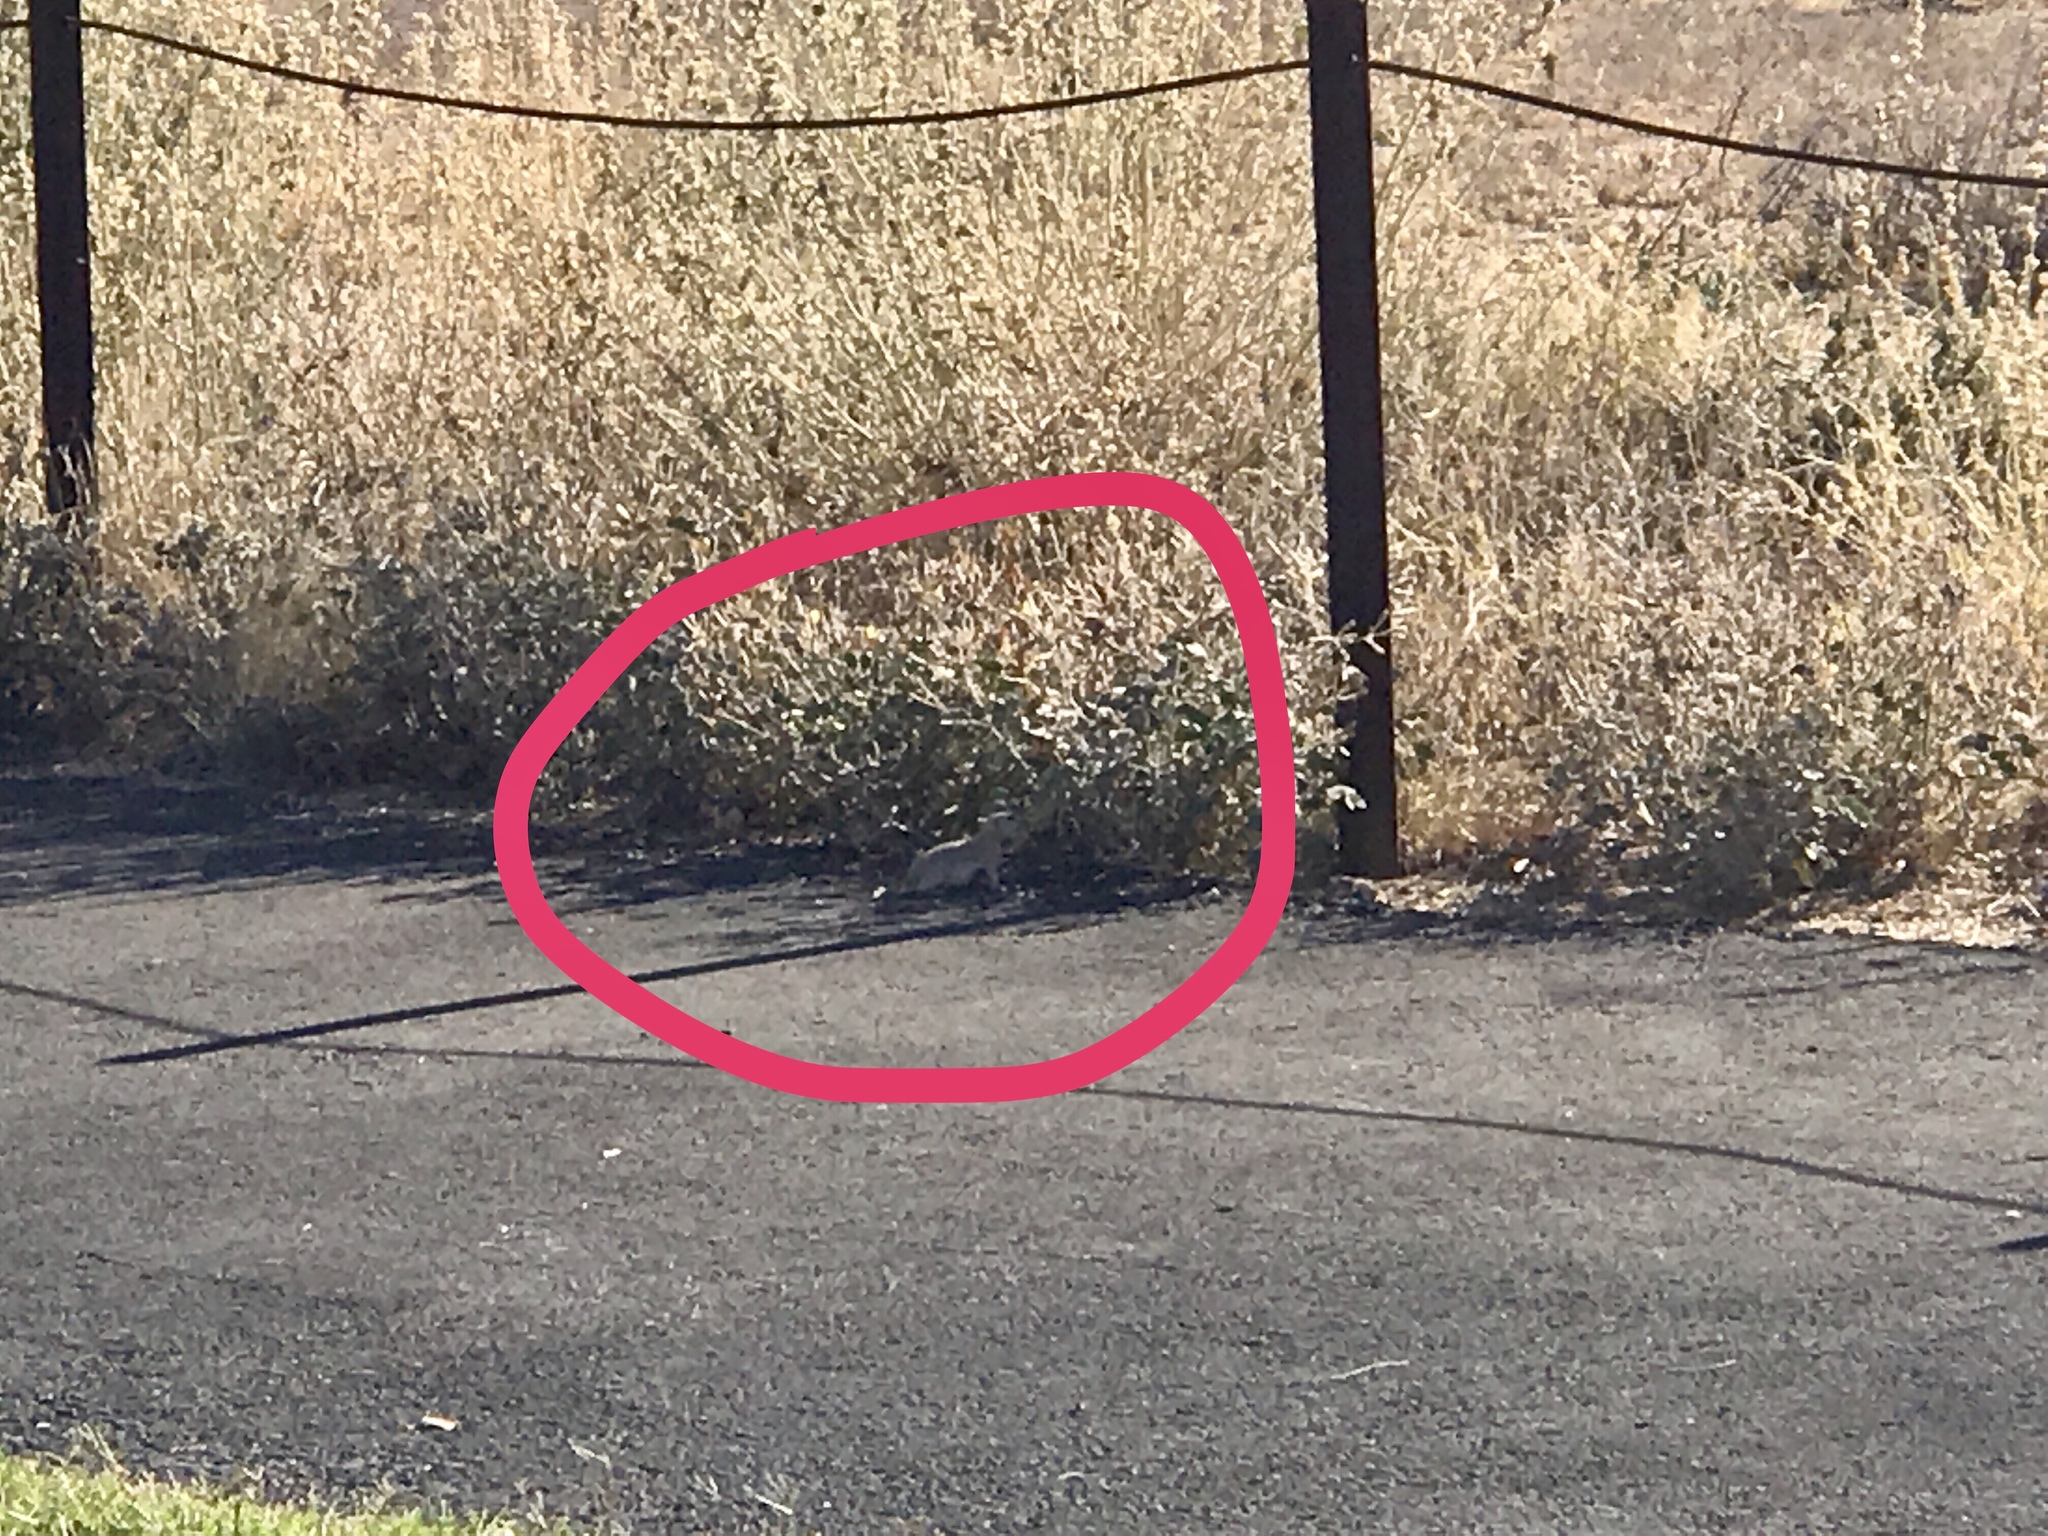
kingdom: Animalia
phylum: Chordata
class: Mammalia
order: Rodentia
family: Sciuridae
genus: Xerospermophilus
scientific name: Xerospermophilus tereticaudus
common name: Round-tailed ground squirrel
